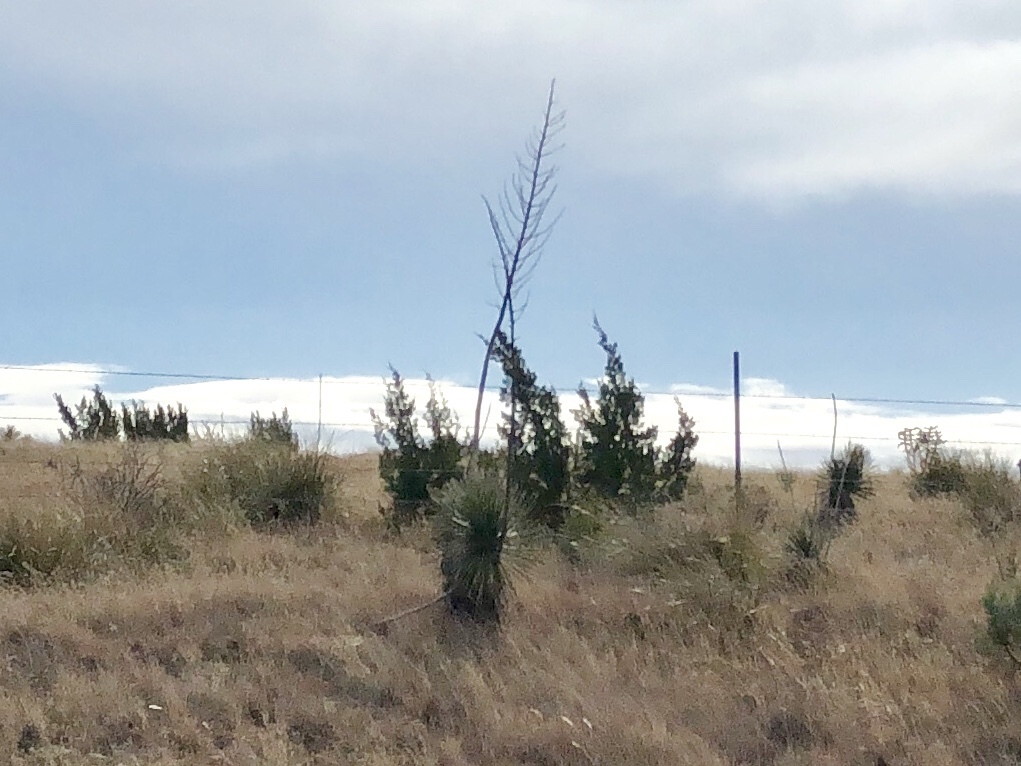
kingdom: Plantae
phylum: Tracheophyta
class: Liliopsida
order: Asparagales
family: Asparagaceae
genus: Yucca
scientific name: Yucca elata
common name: Palmella
